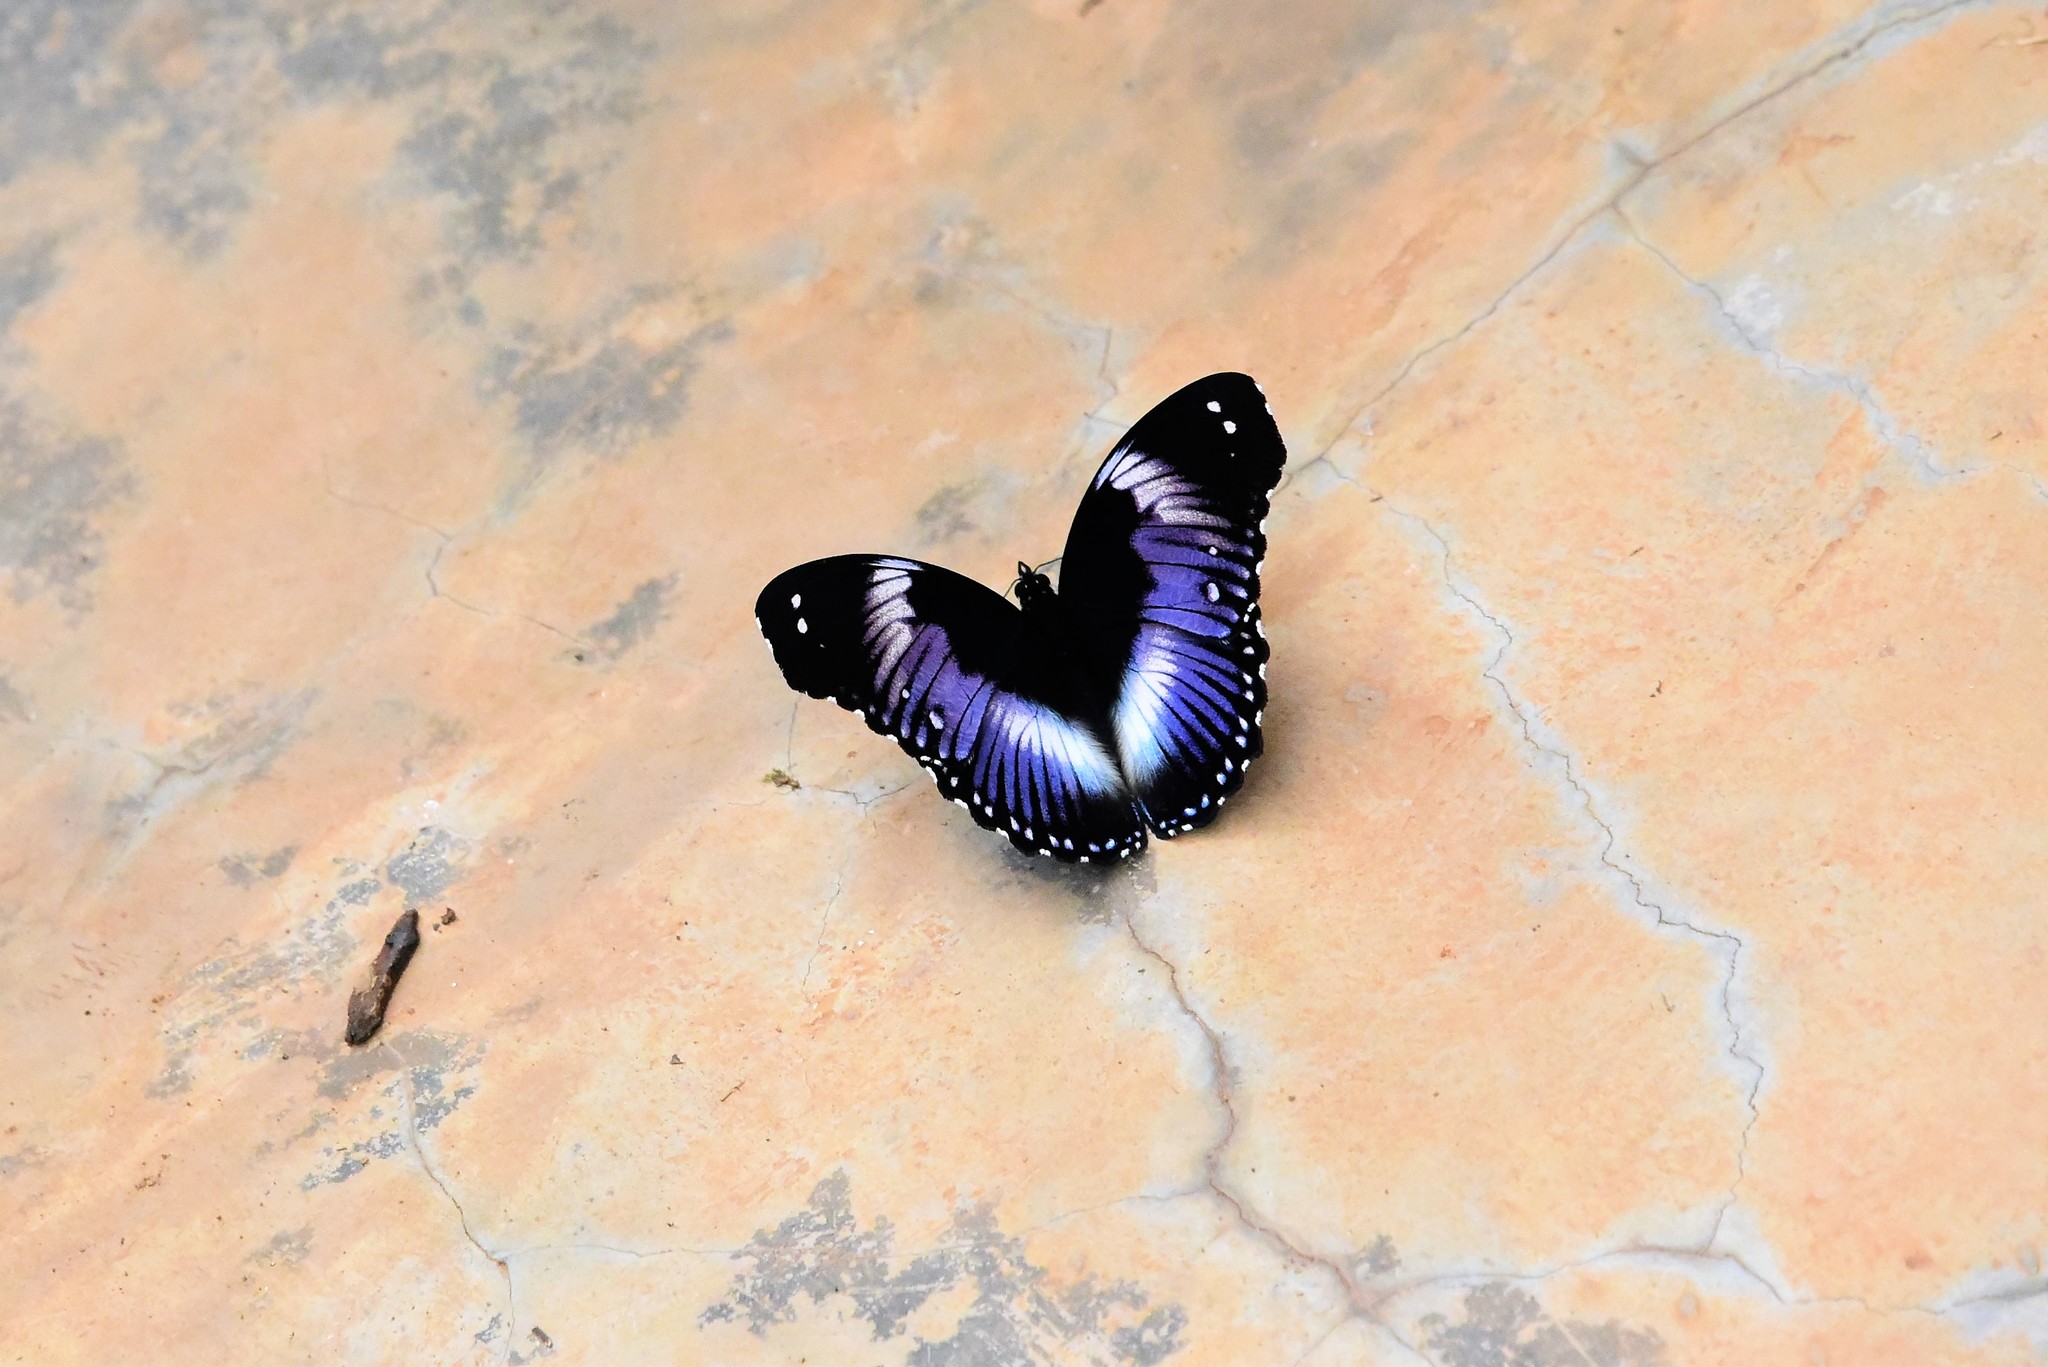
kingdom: Animalia
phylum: Arthropoda
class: Insecta
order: Lepidoptera
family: Nymphalidae
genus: Hypolimnas
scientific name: Hypolimnas salmacis
